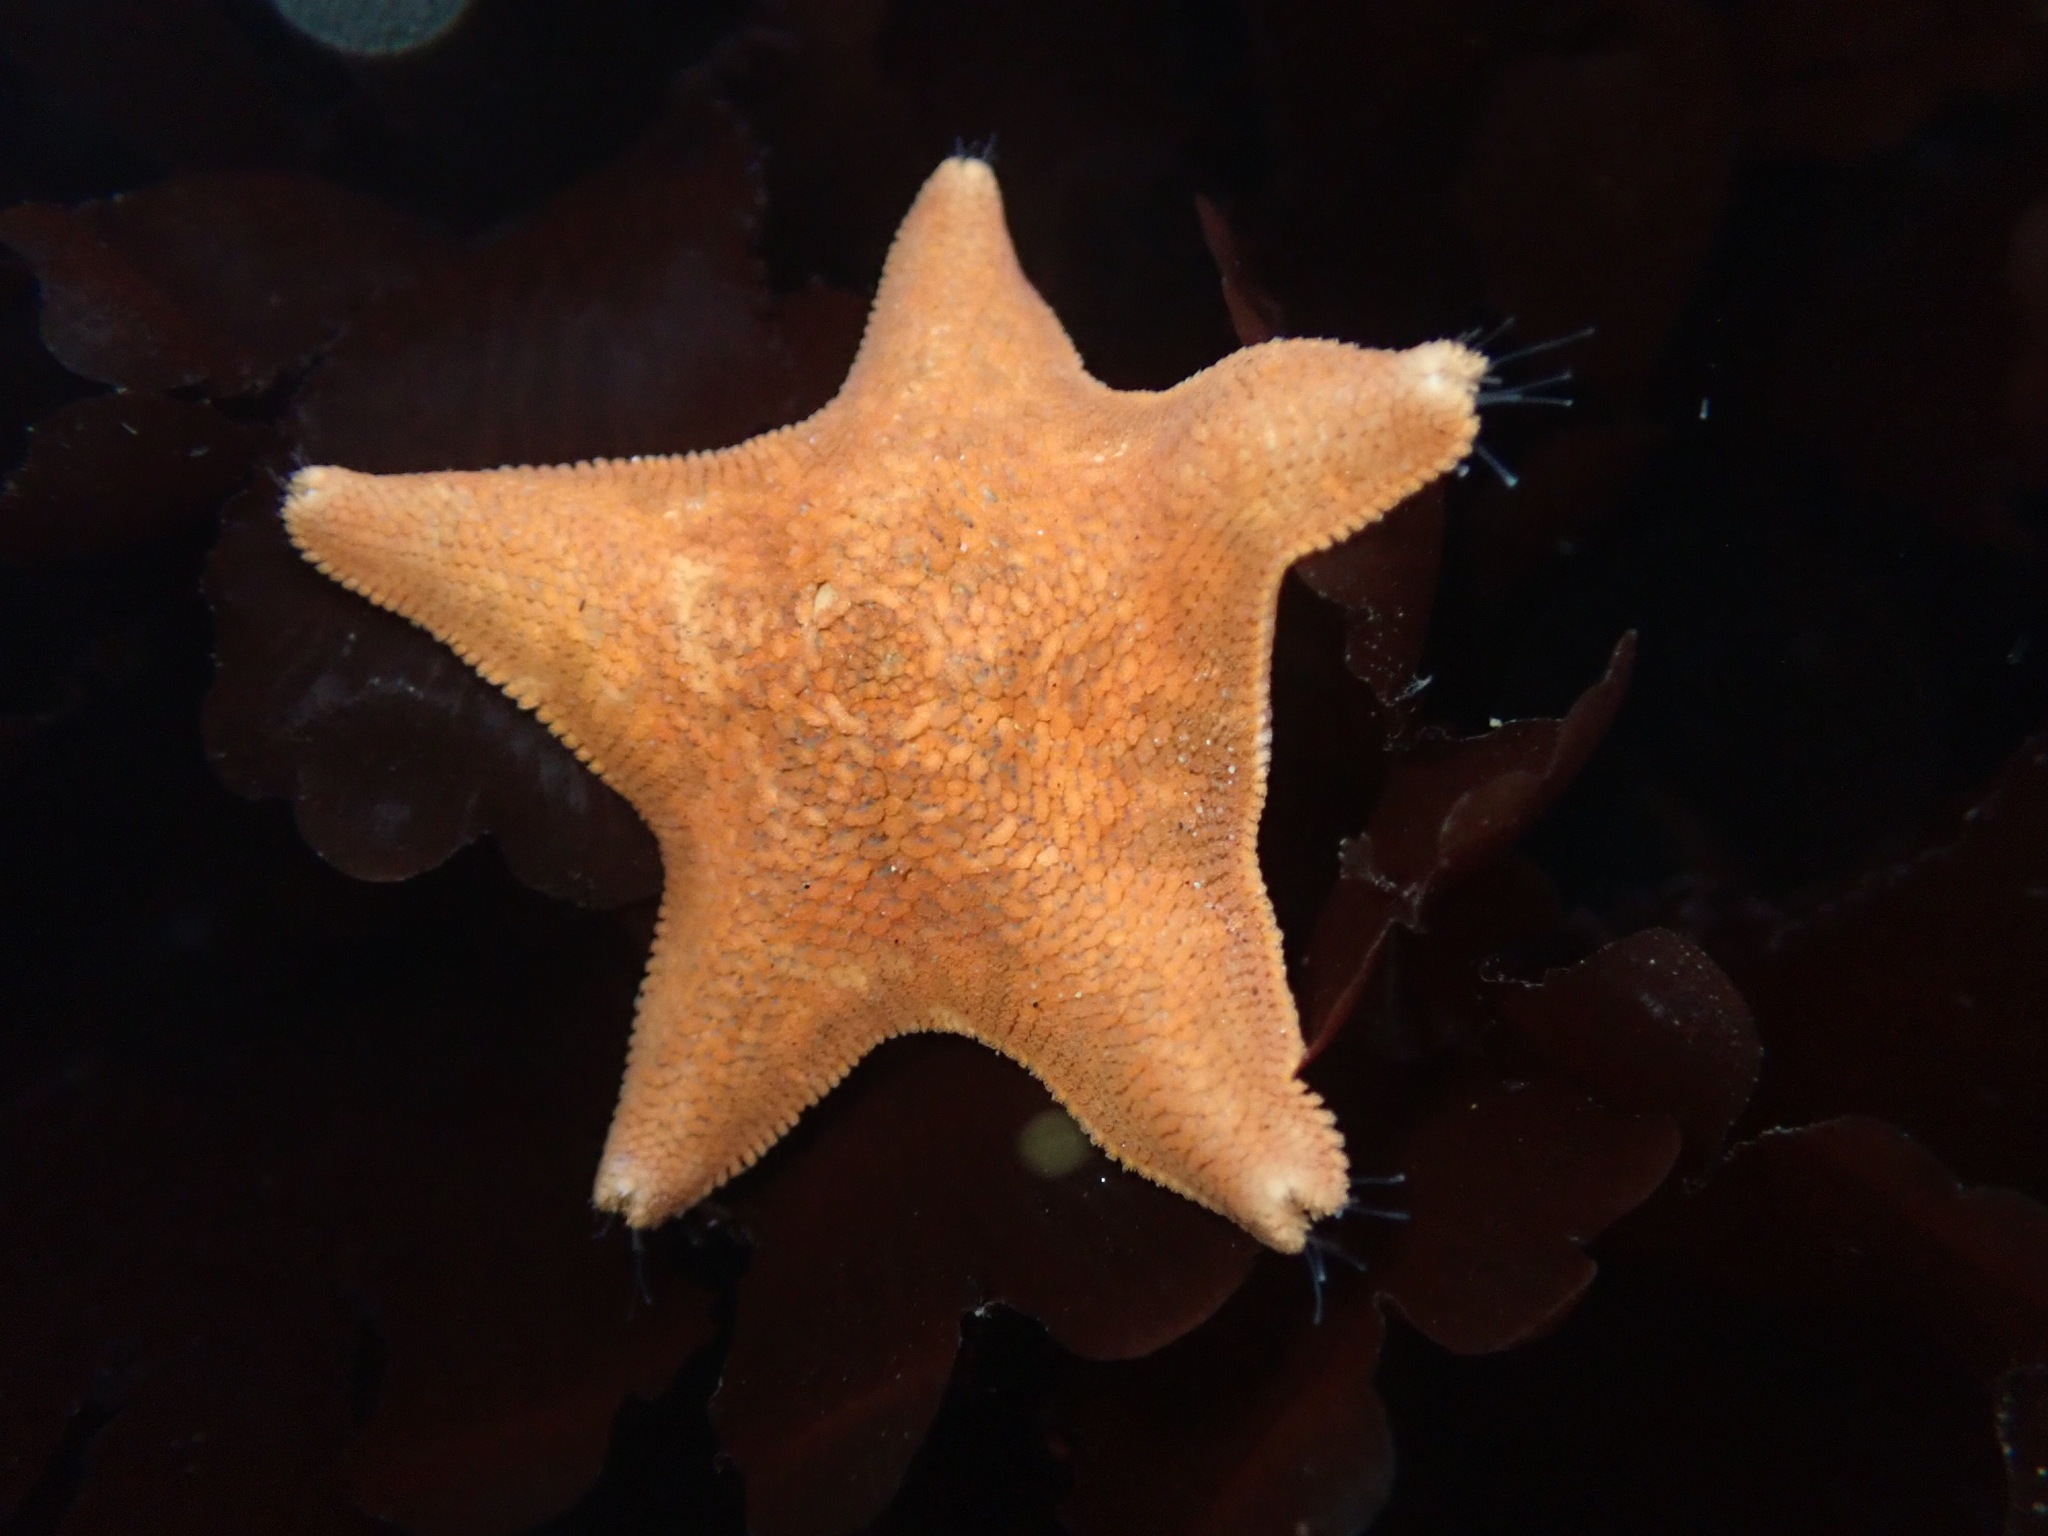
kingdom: Animalia
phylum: Echinodermata
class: Asteroidea
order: Valvatida
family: Asterinidae
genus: Patiria
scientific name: Patiria miniata
